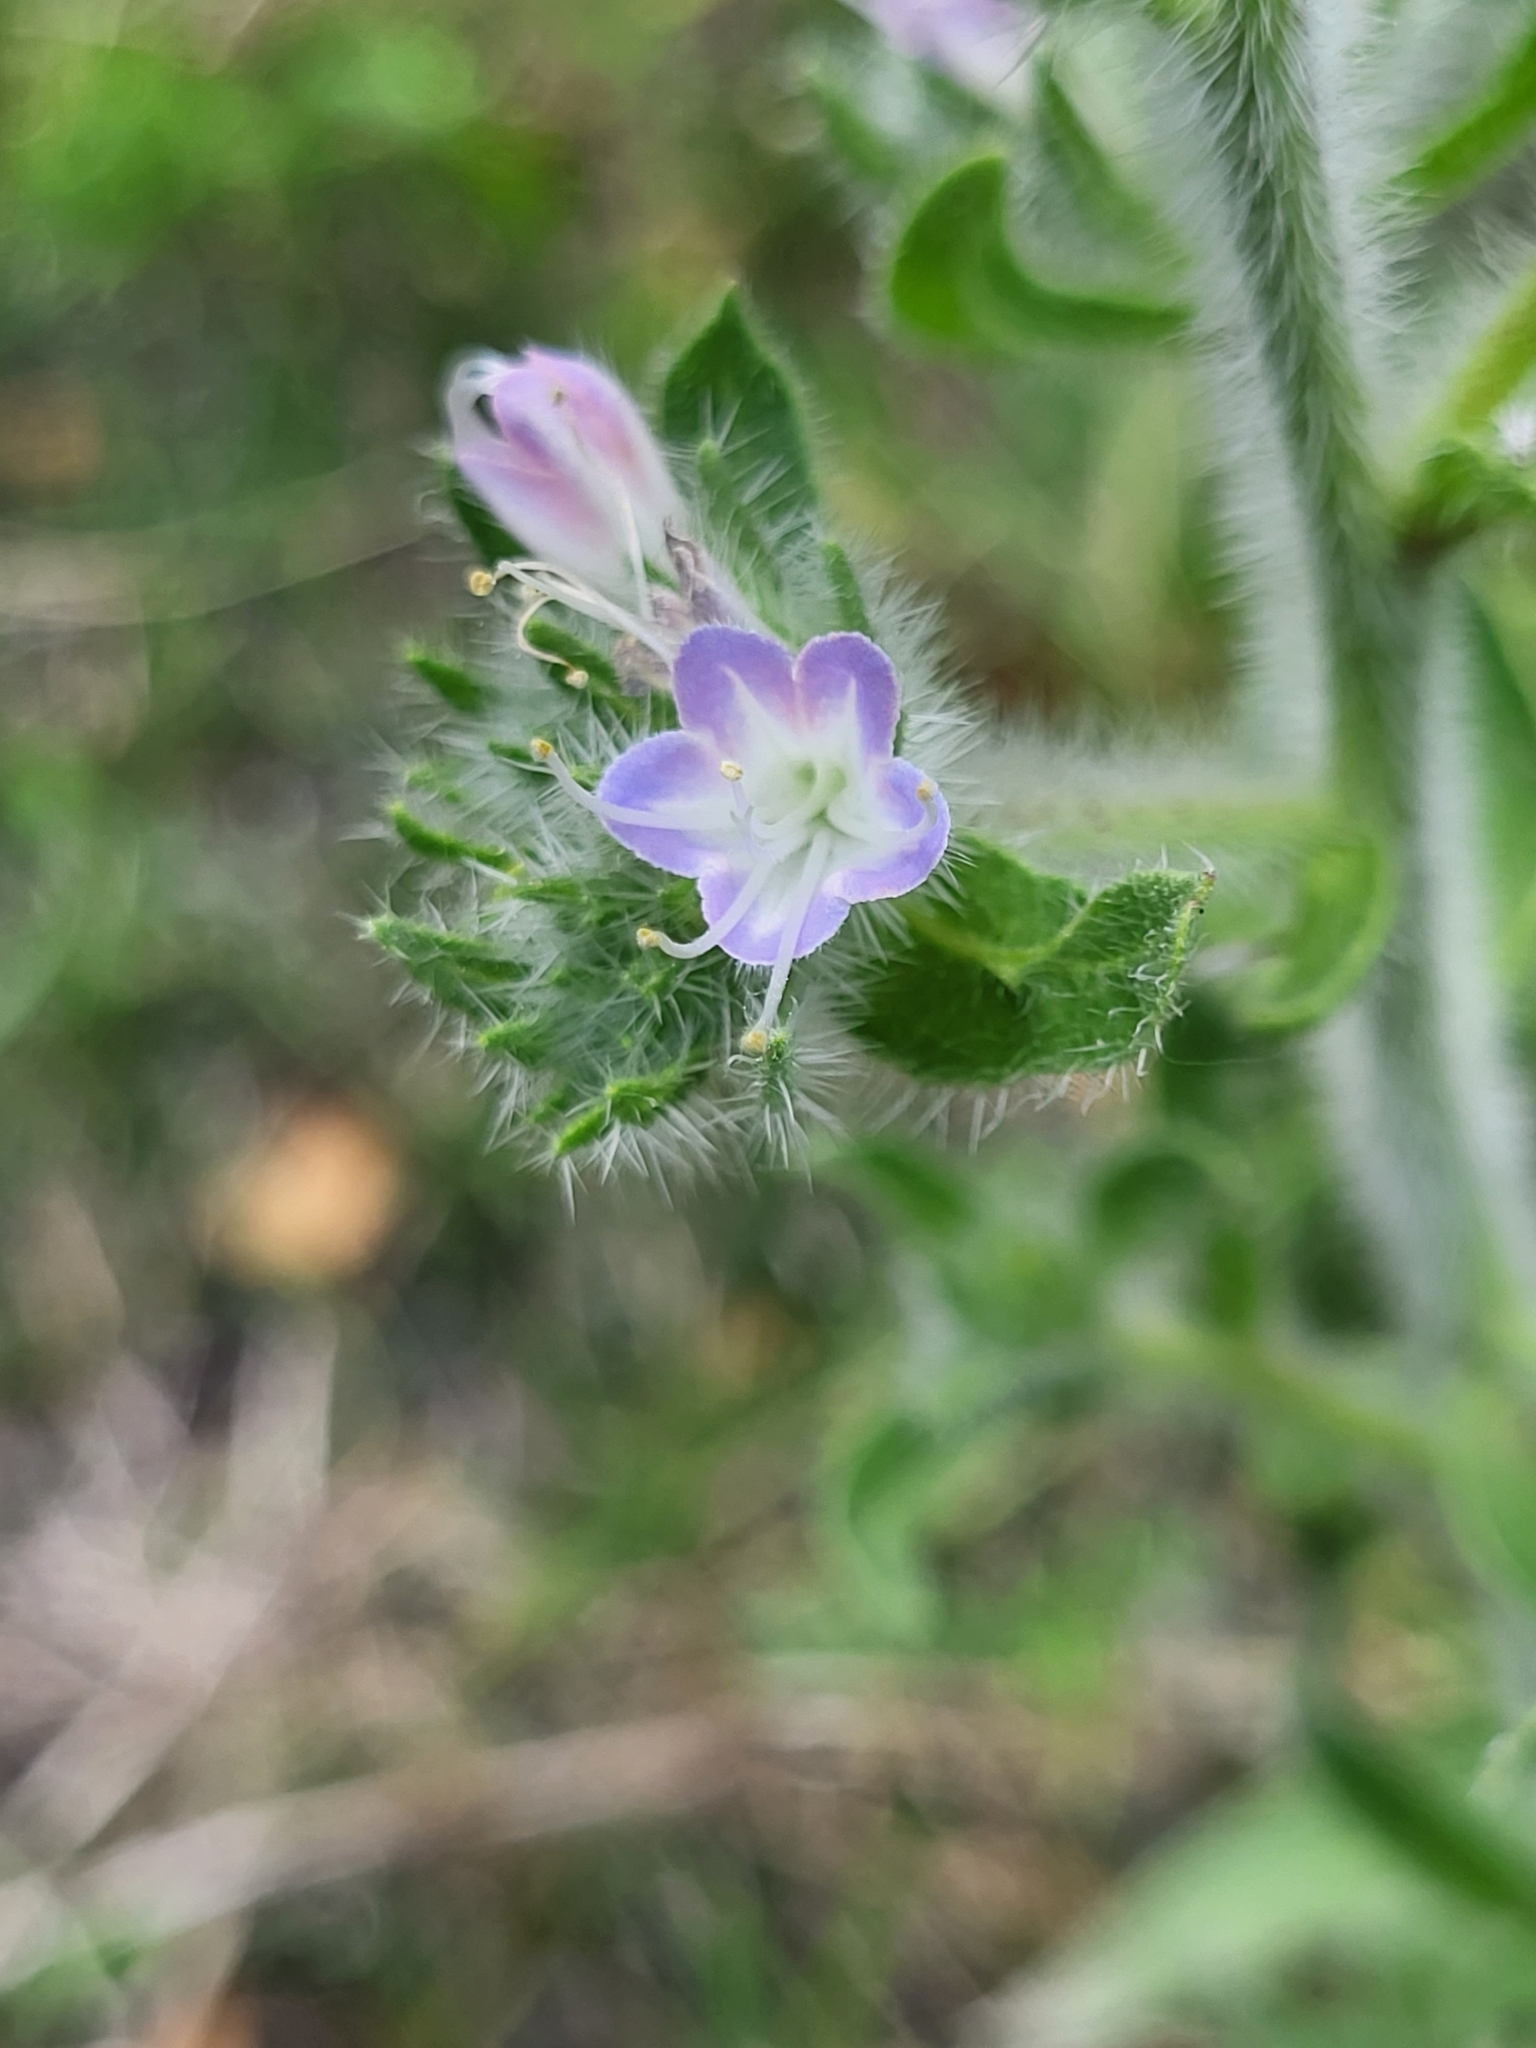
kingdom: Plantae
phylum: Tracheophyta
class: Magnoliopsida
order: Boraginales
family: Boraginaceae
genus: Echium
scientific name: Echium italicum
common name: Italian viper's bugloss
